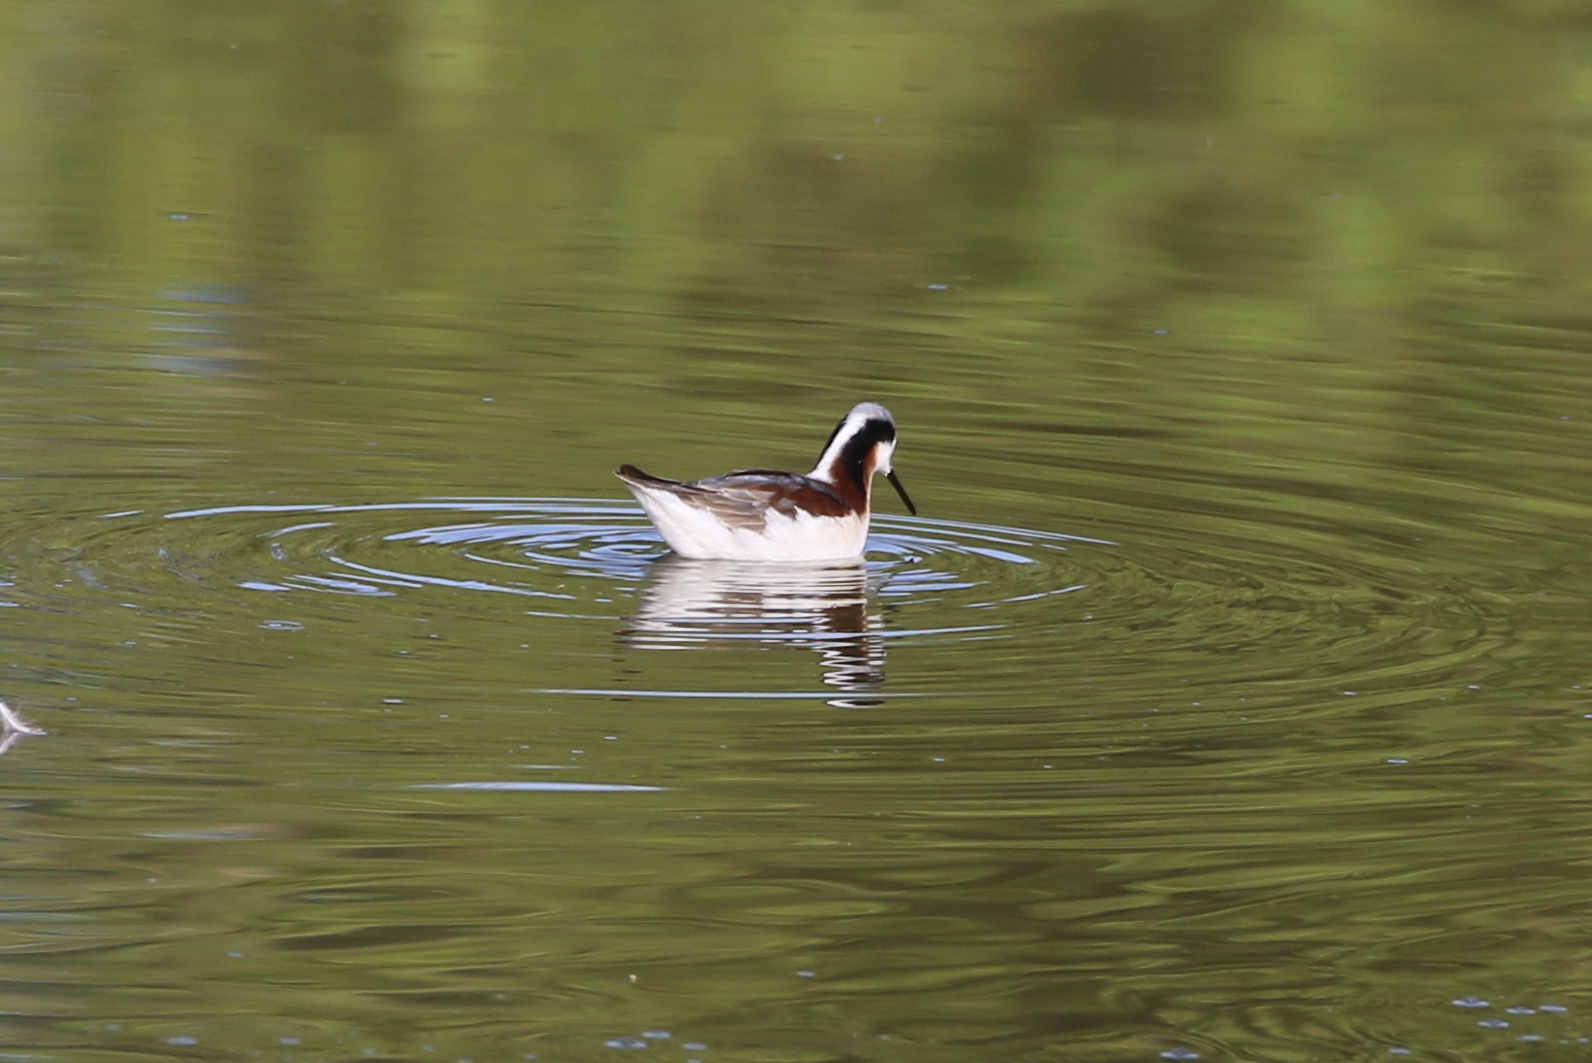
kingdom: Animalia
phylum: Chordata
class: Aves
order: Charadriiformes
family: Scolopacidae
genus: Phalaropus
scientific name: Phalaropus tricolor
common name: Wilson's phalarope
